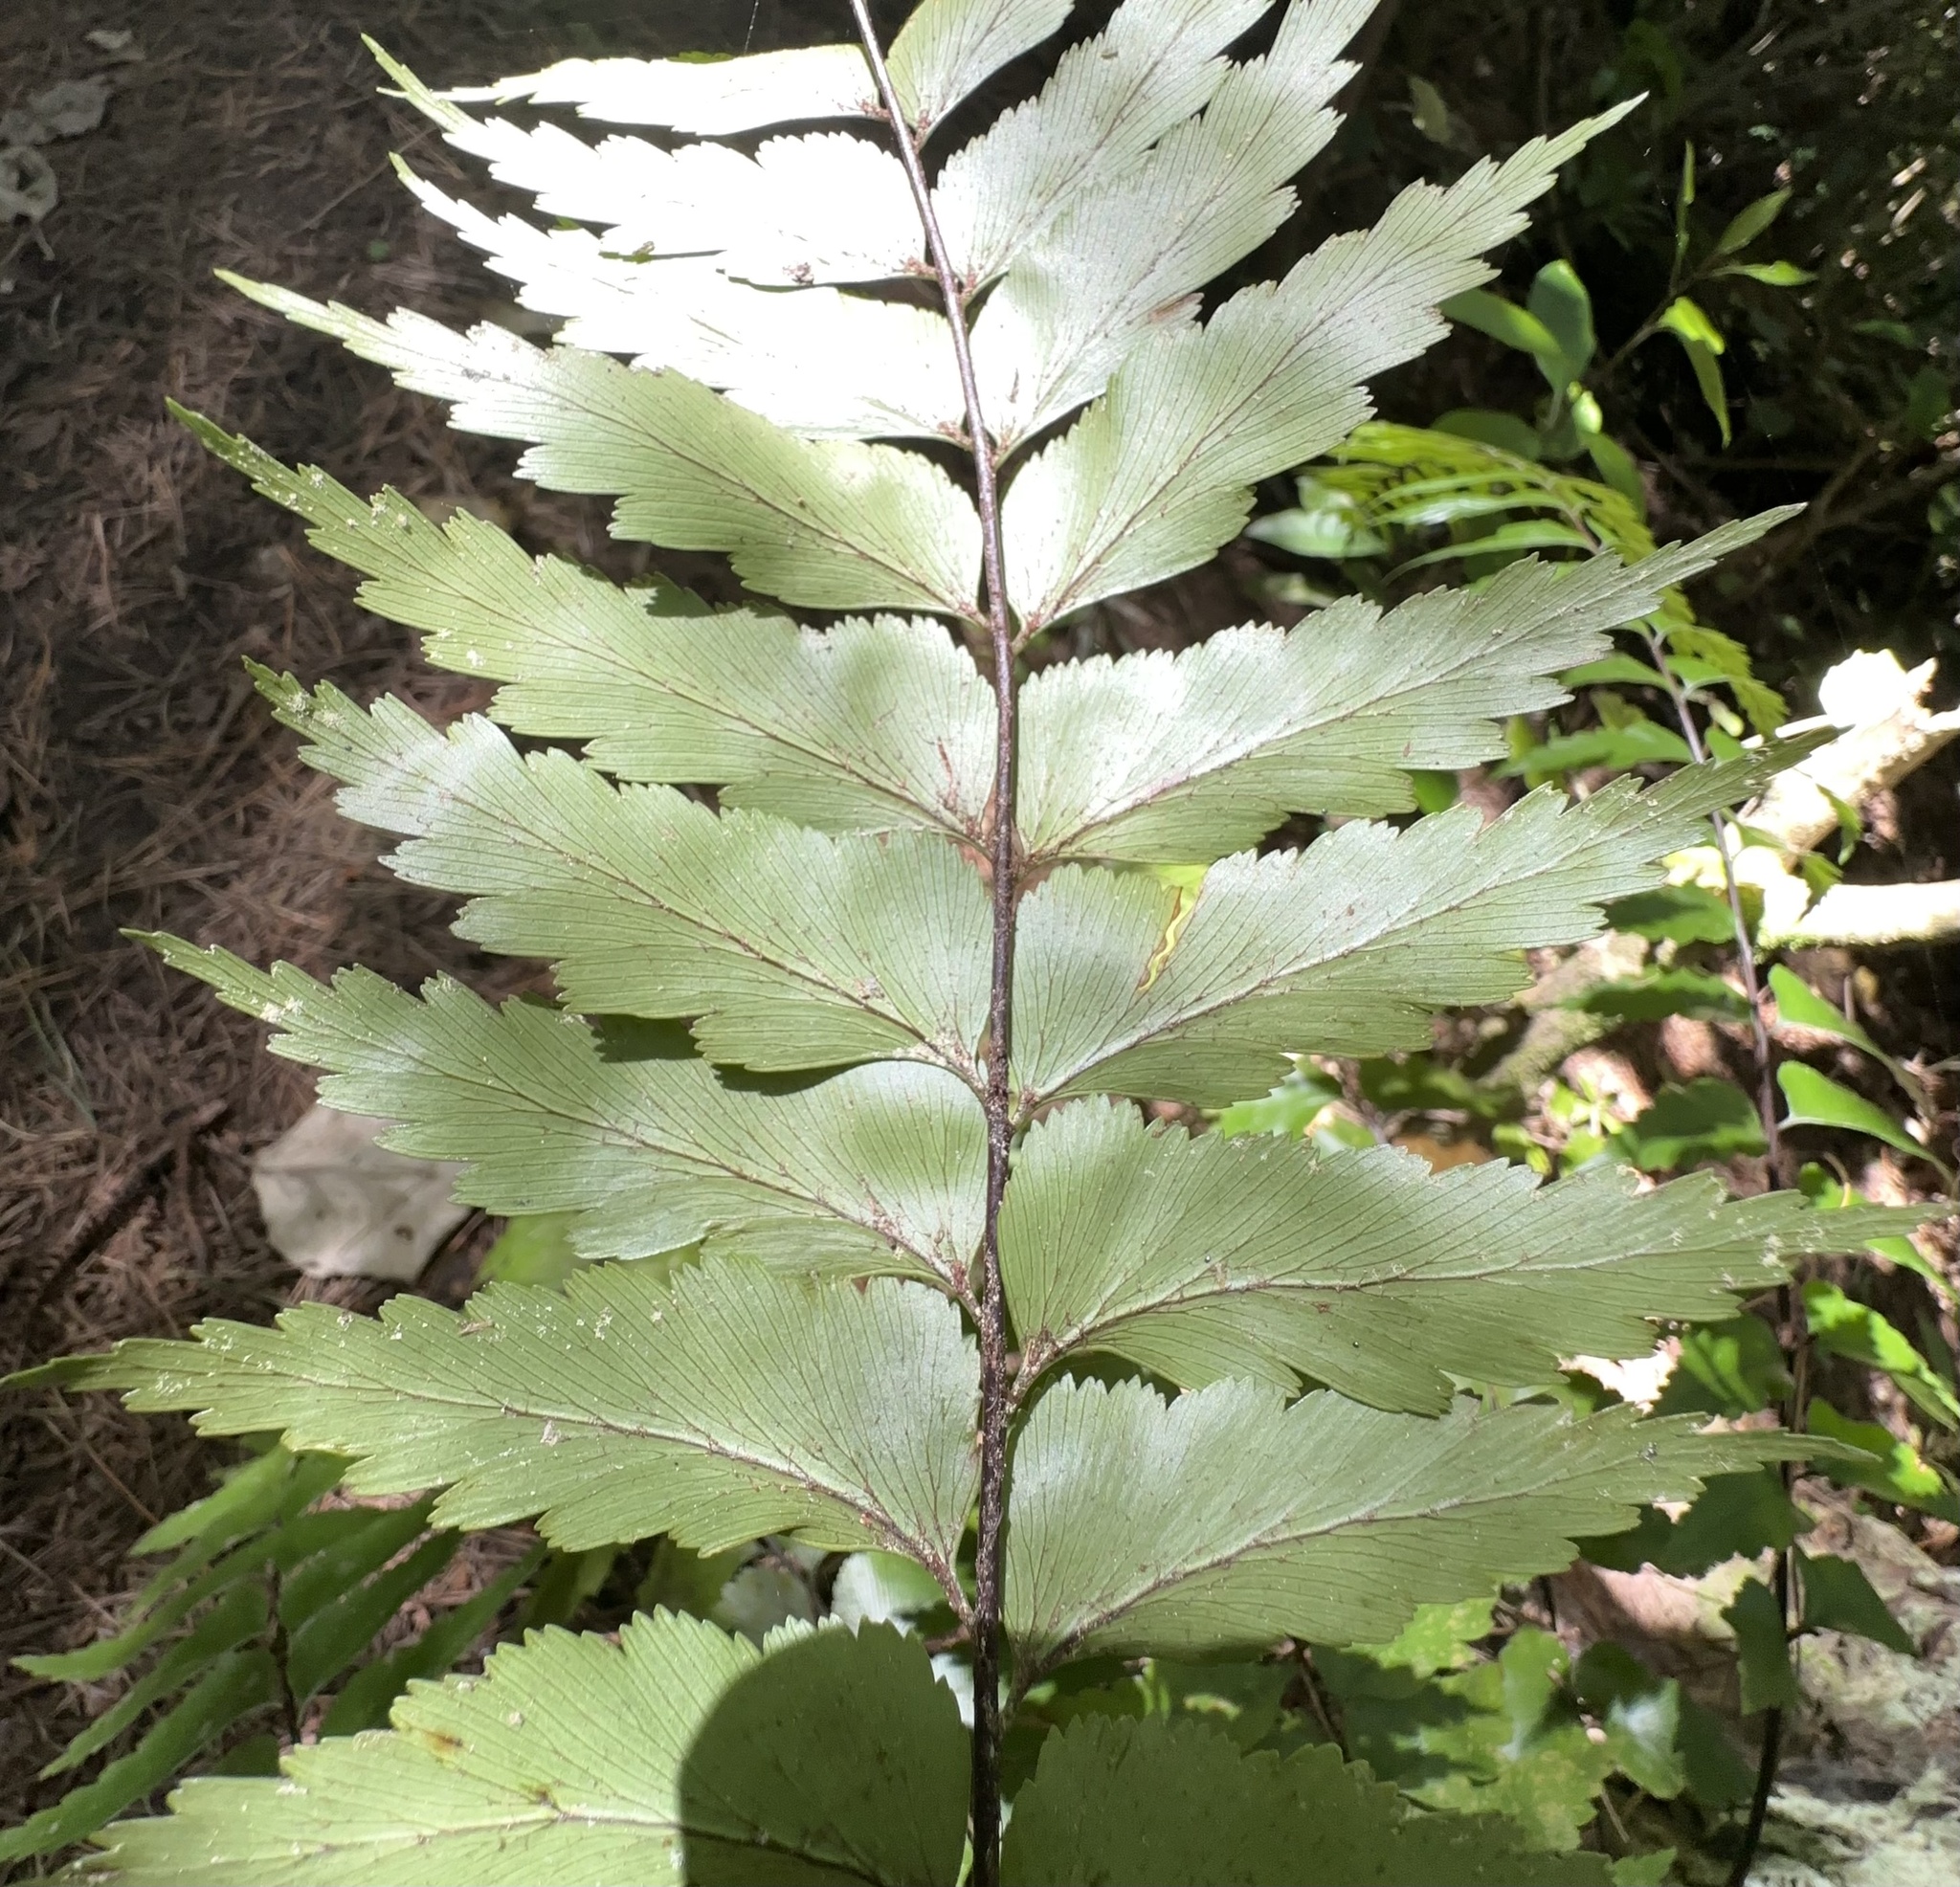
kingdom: Plantae
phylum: Tracheophyta
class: Polypodiopsida
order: Polypodiales
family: Aspleniaceae
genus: Asplenium
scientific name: Asplenium polyodon
